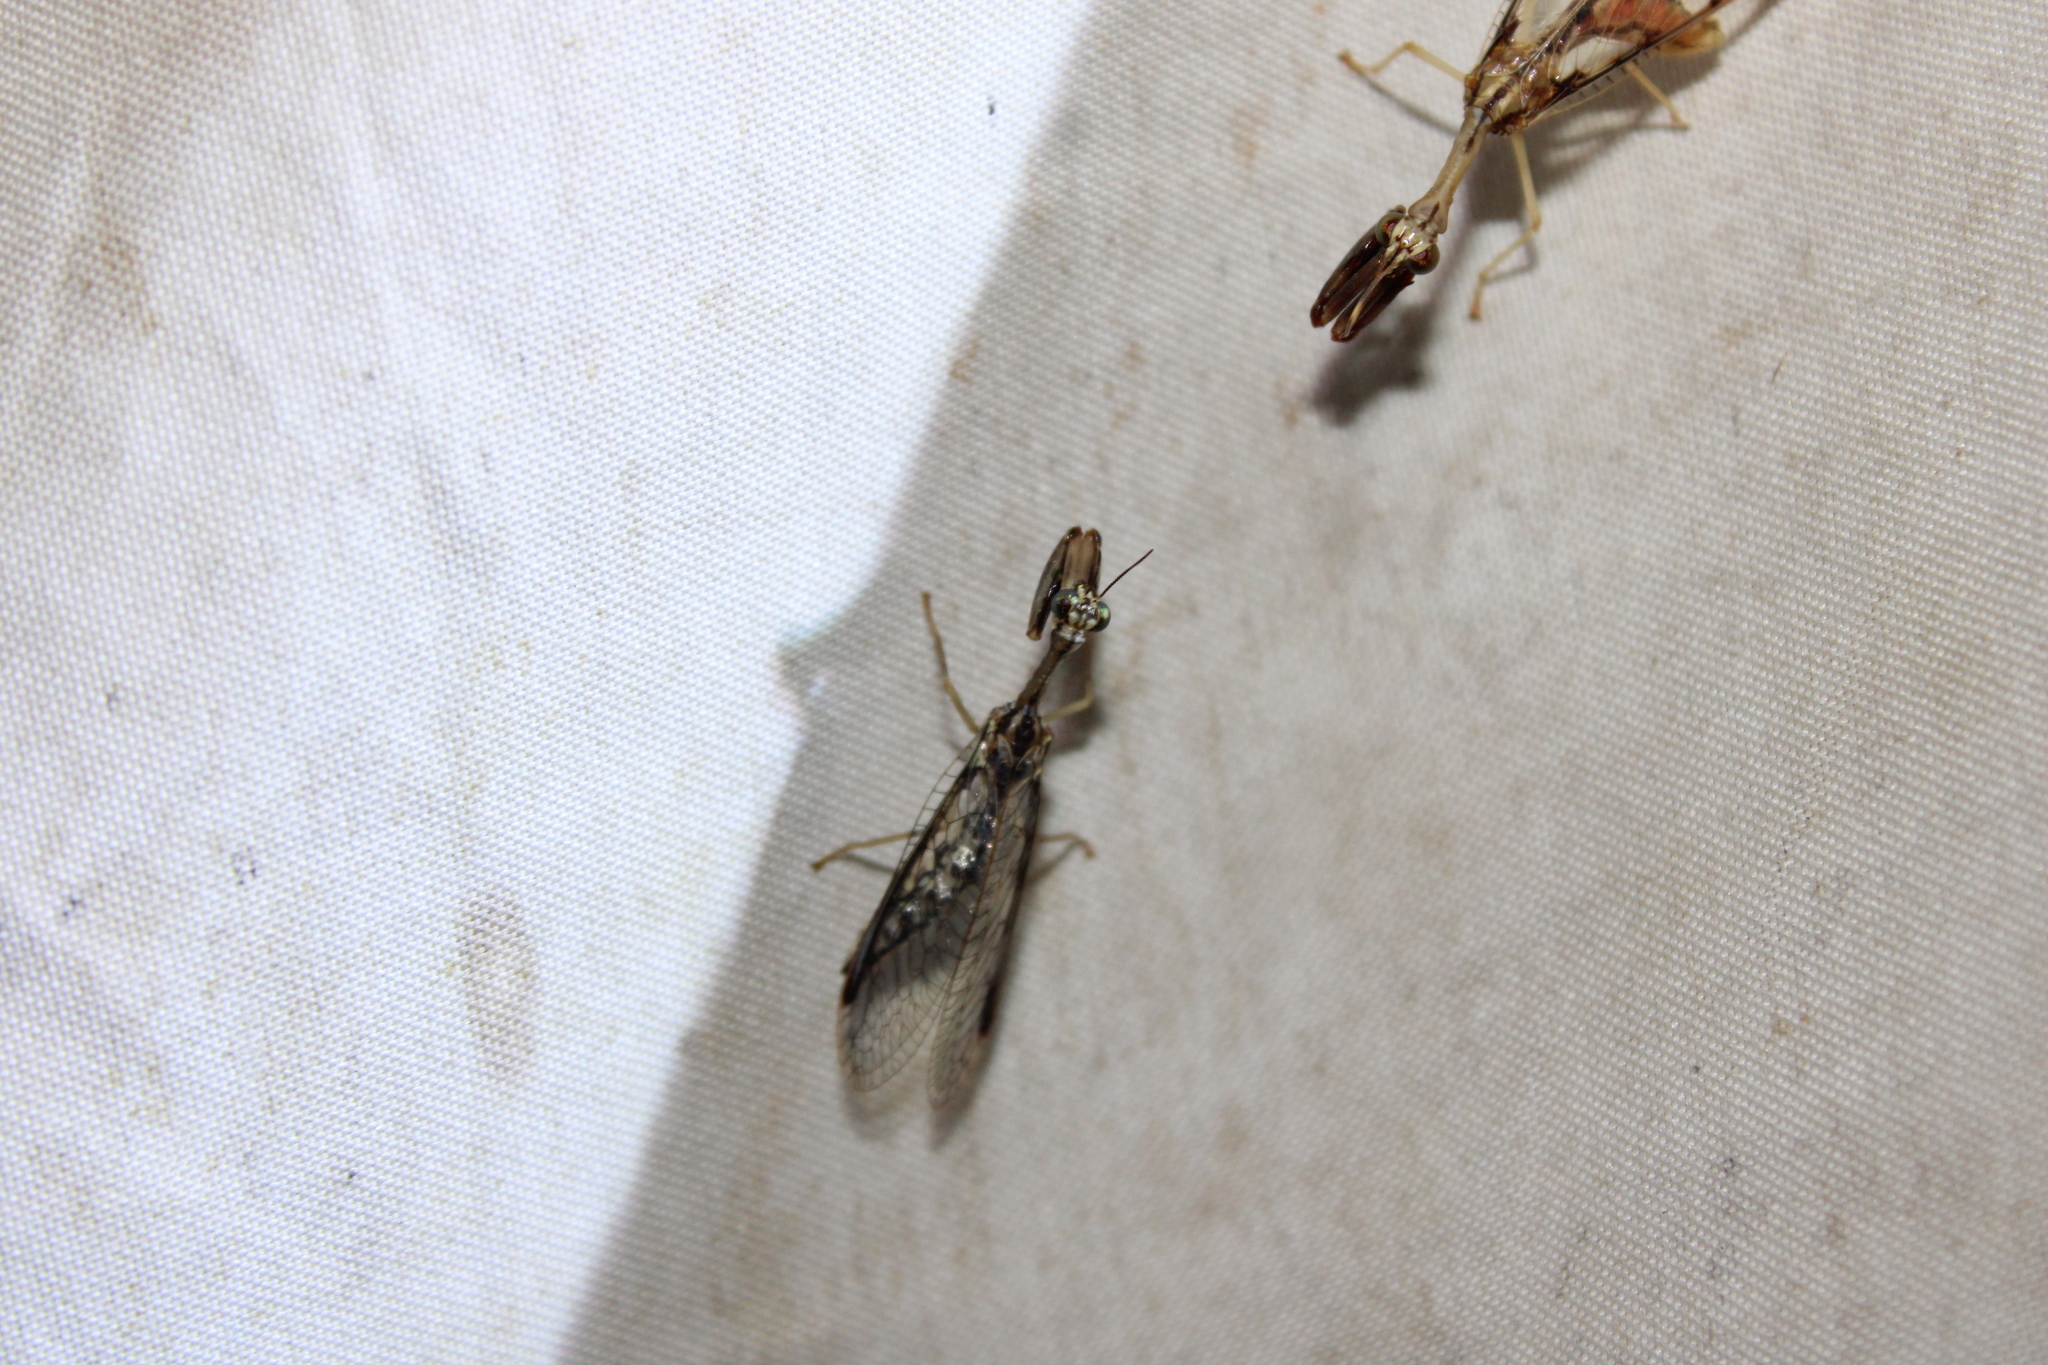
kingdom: Animalia
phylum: Arthropoda
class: Insecta
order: Neuroptera
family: Mantispidae
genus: Dicromantispa
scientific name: Dicromantispa sayi
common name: Say's mantidfly
